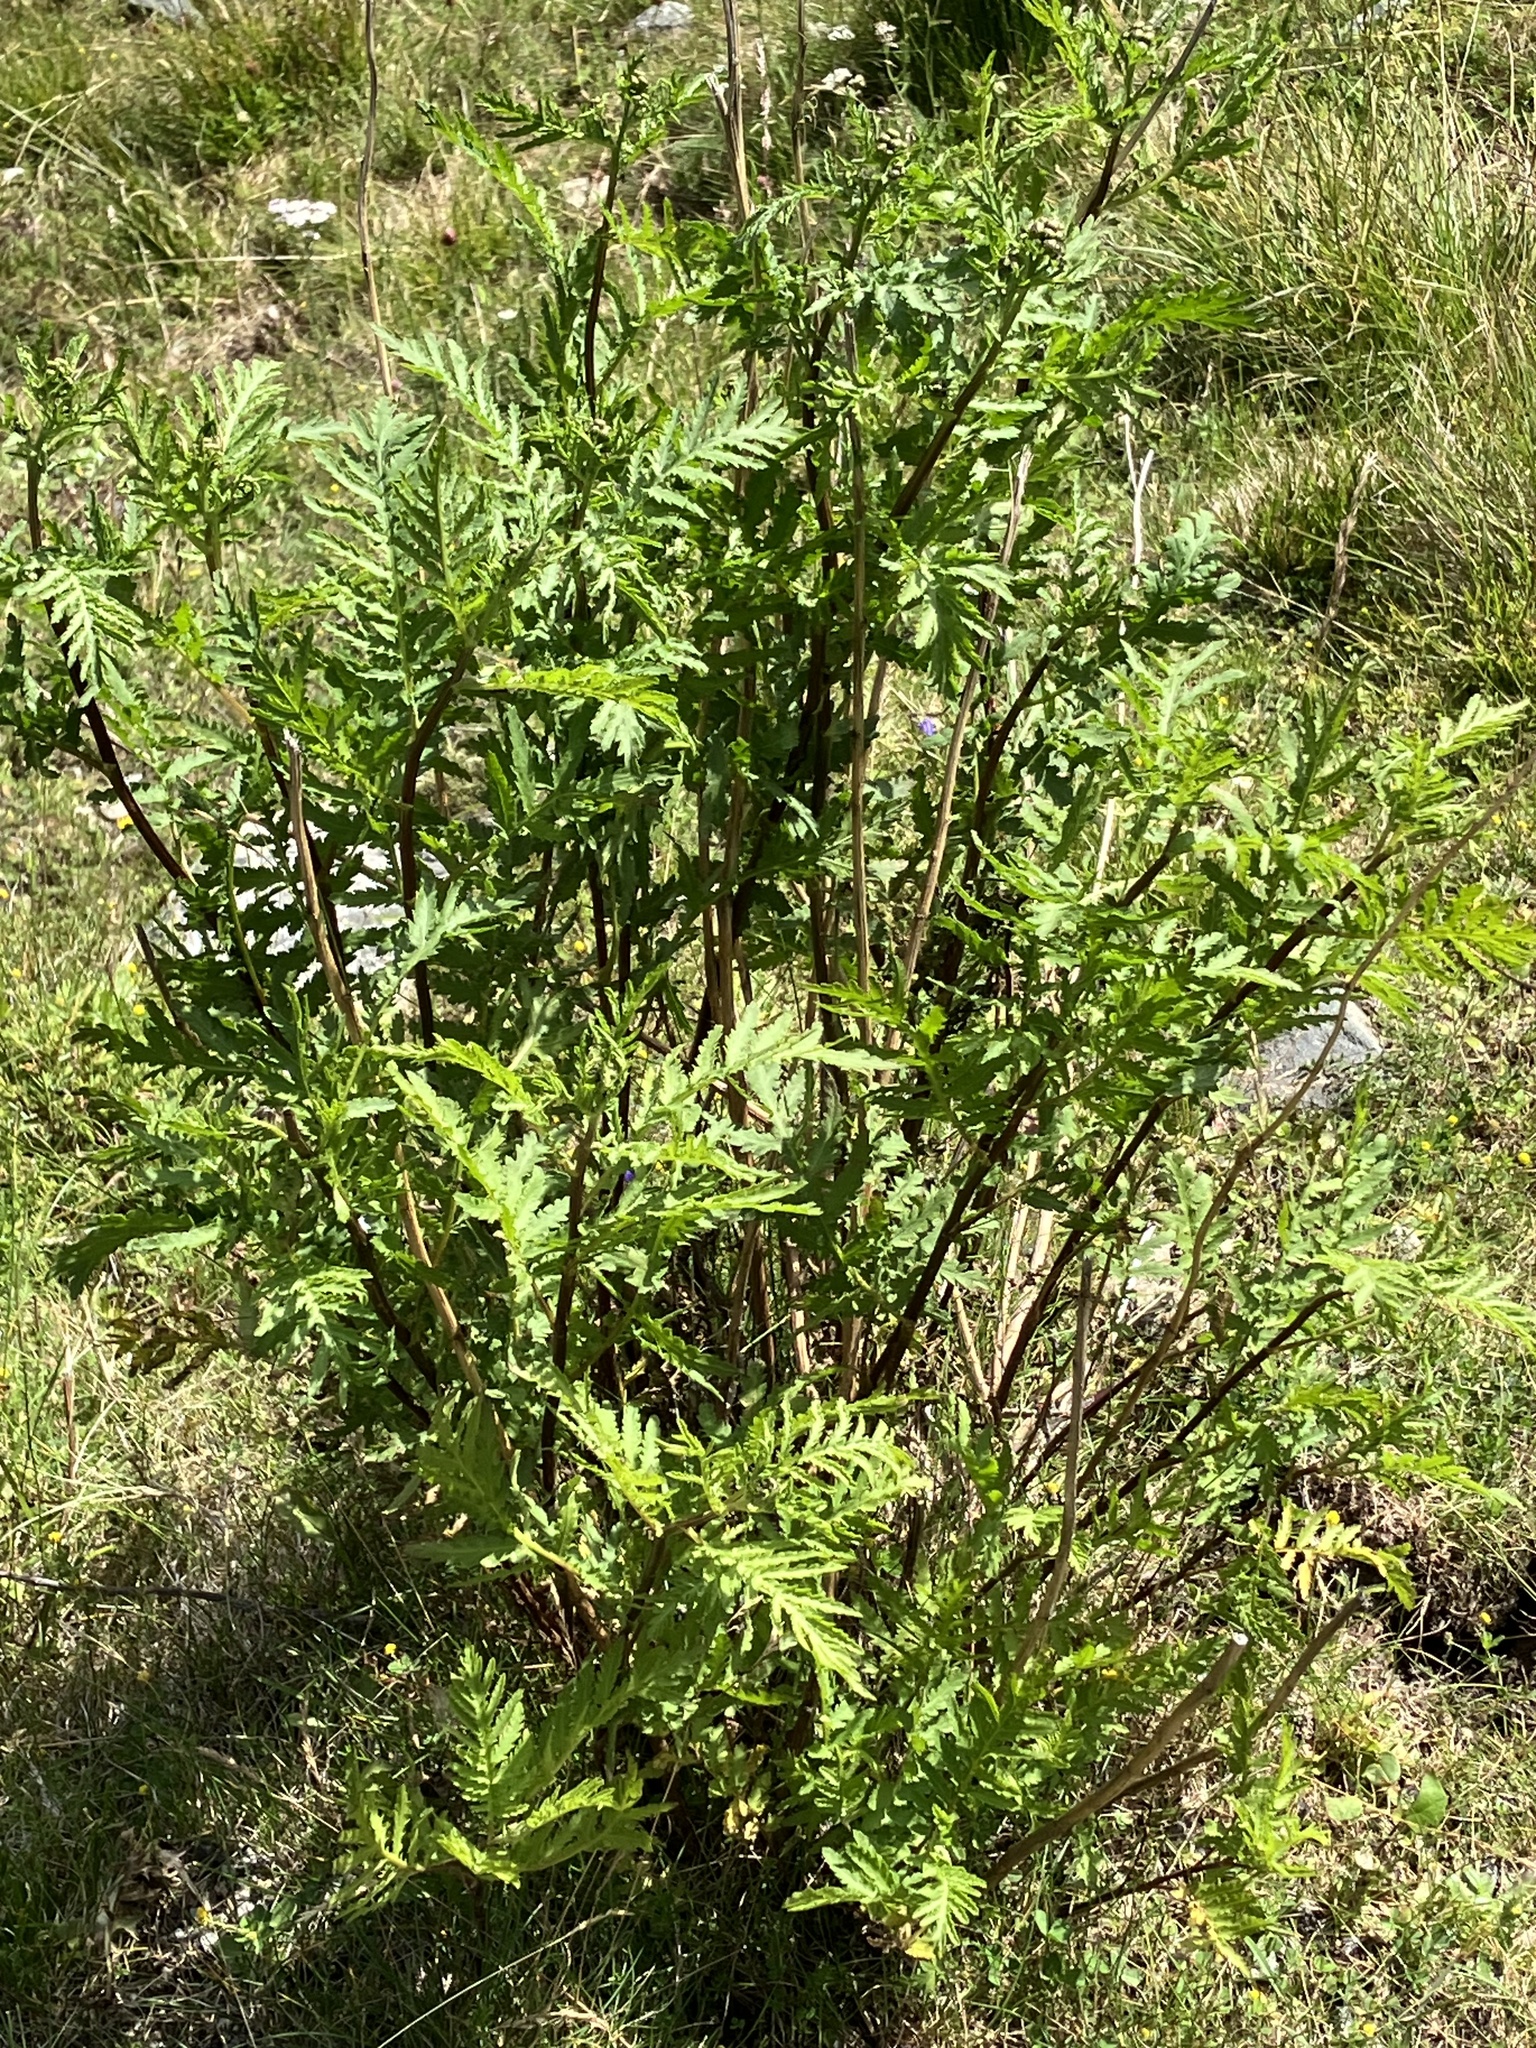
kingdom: Plantae
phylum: Tracheophyta
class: Magnoliopsida
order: Asterales
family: Asteraceae
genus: Tanacetum
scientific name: Tanacetum vulgare
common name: Common tansy
